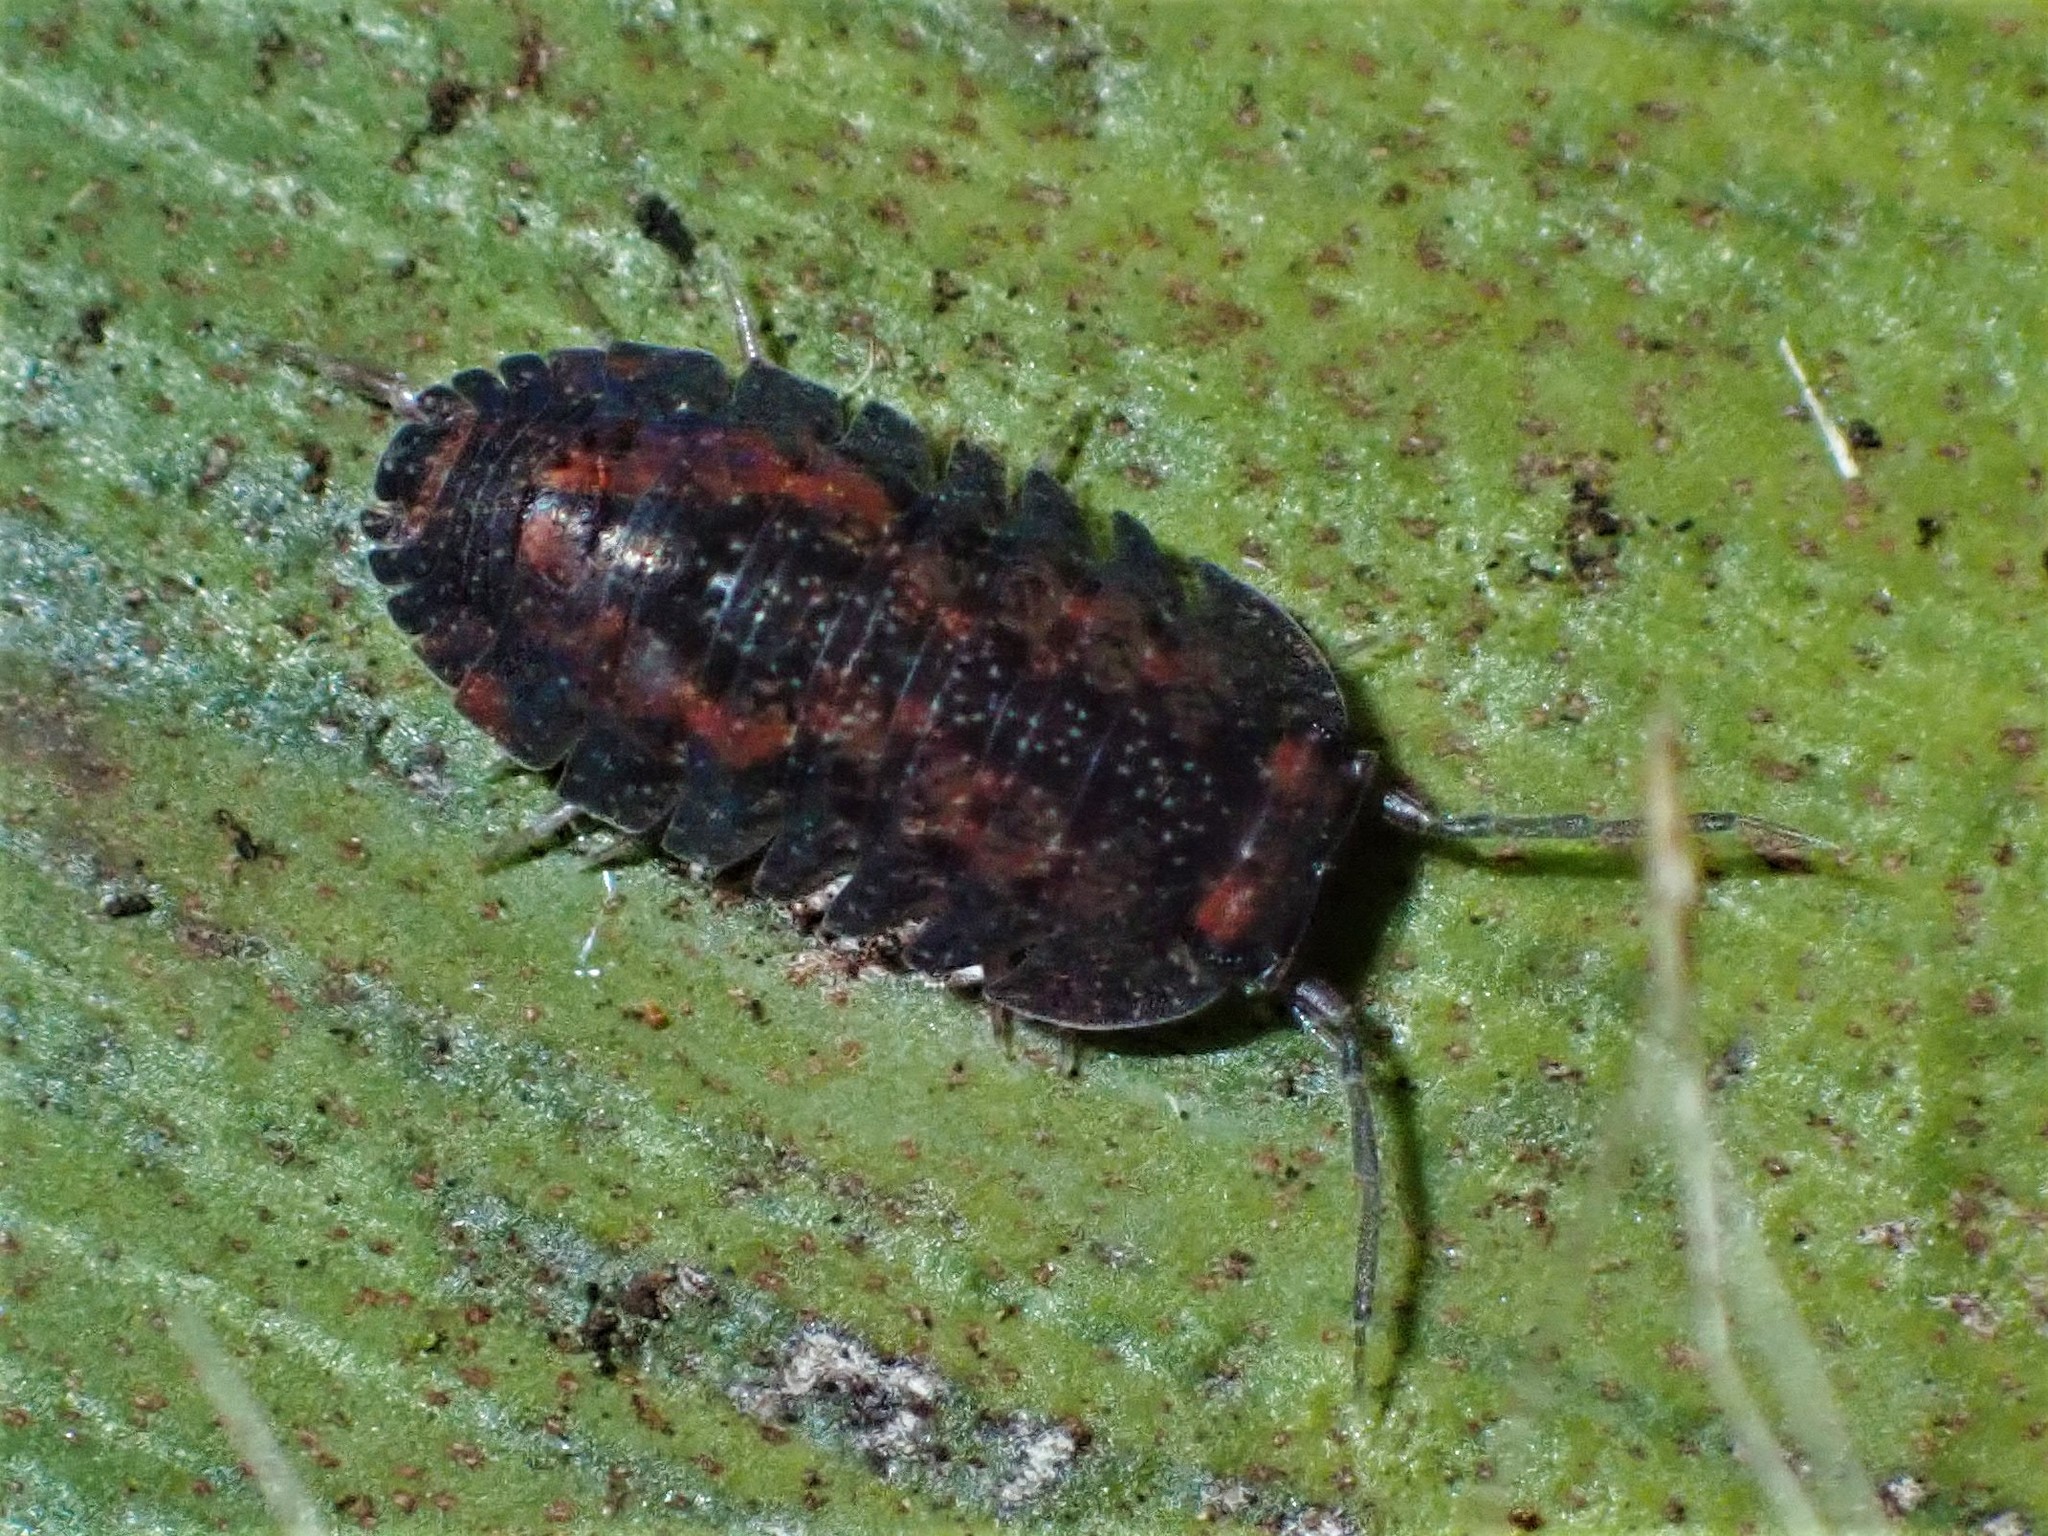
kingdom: Animalia
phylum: Arthropoda
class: Malacostraca
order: Isopoda
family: Armadillidae
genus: Cubaris
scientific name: Cubaris tarangensis
